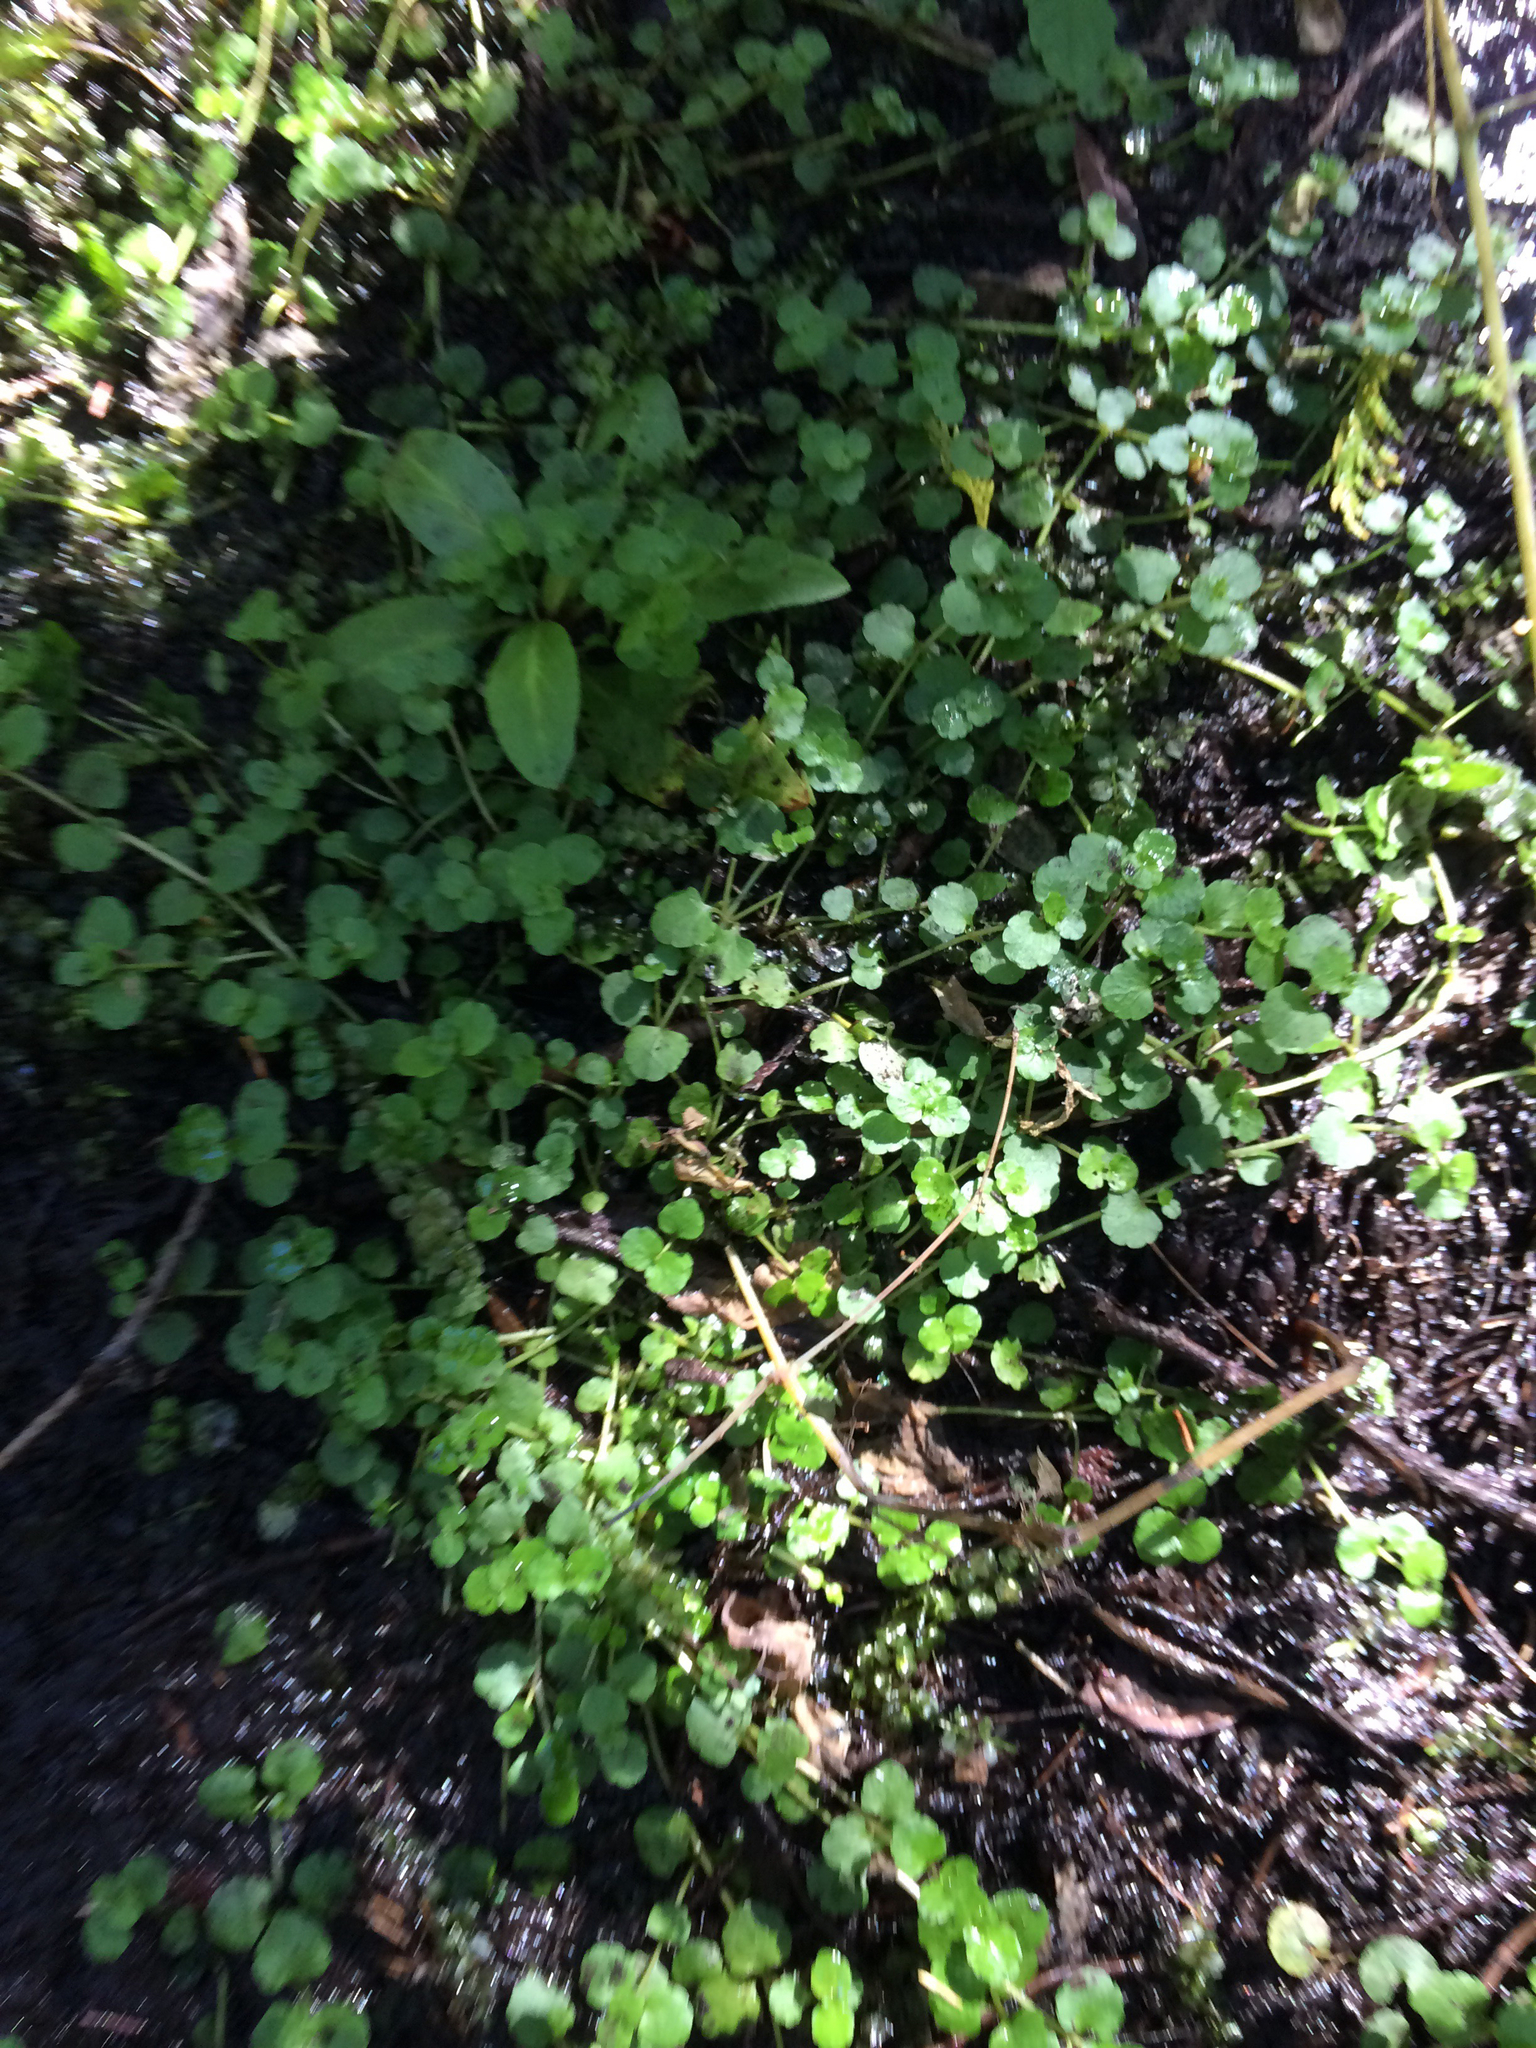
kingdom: Plantae
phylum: Tracheophyta
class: Magnoliopsida
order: Saxifragales
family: Saxifragaceae
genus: Chrysosplenium
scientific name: Chrysosplenium americanum
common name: American golden-saxifrage
